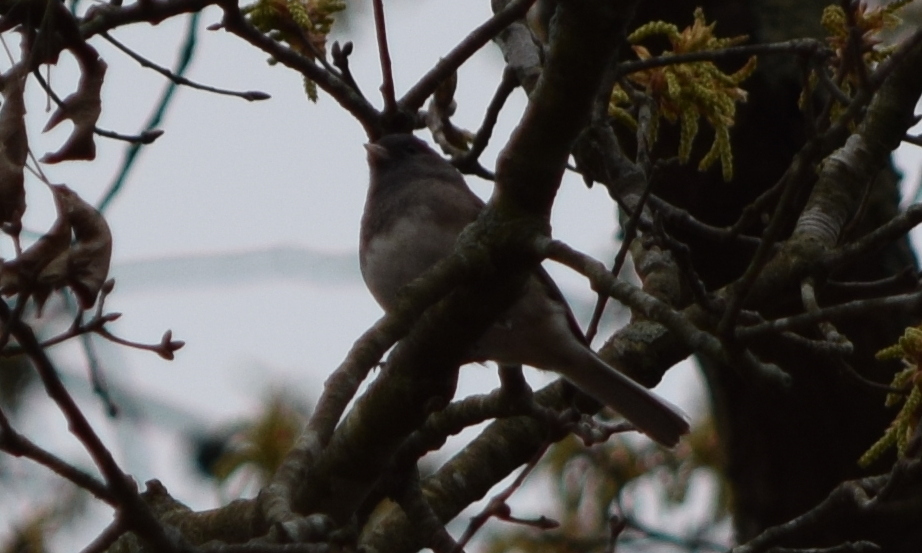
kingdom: Animalia
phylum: Chordata
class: Aves
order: Passeriformes
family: Passerellidae
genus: Junco
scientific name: Junco hyemalis
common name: Dark-eyed junco
